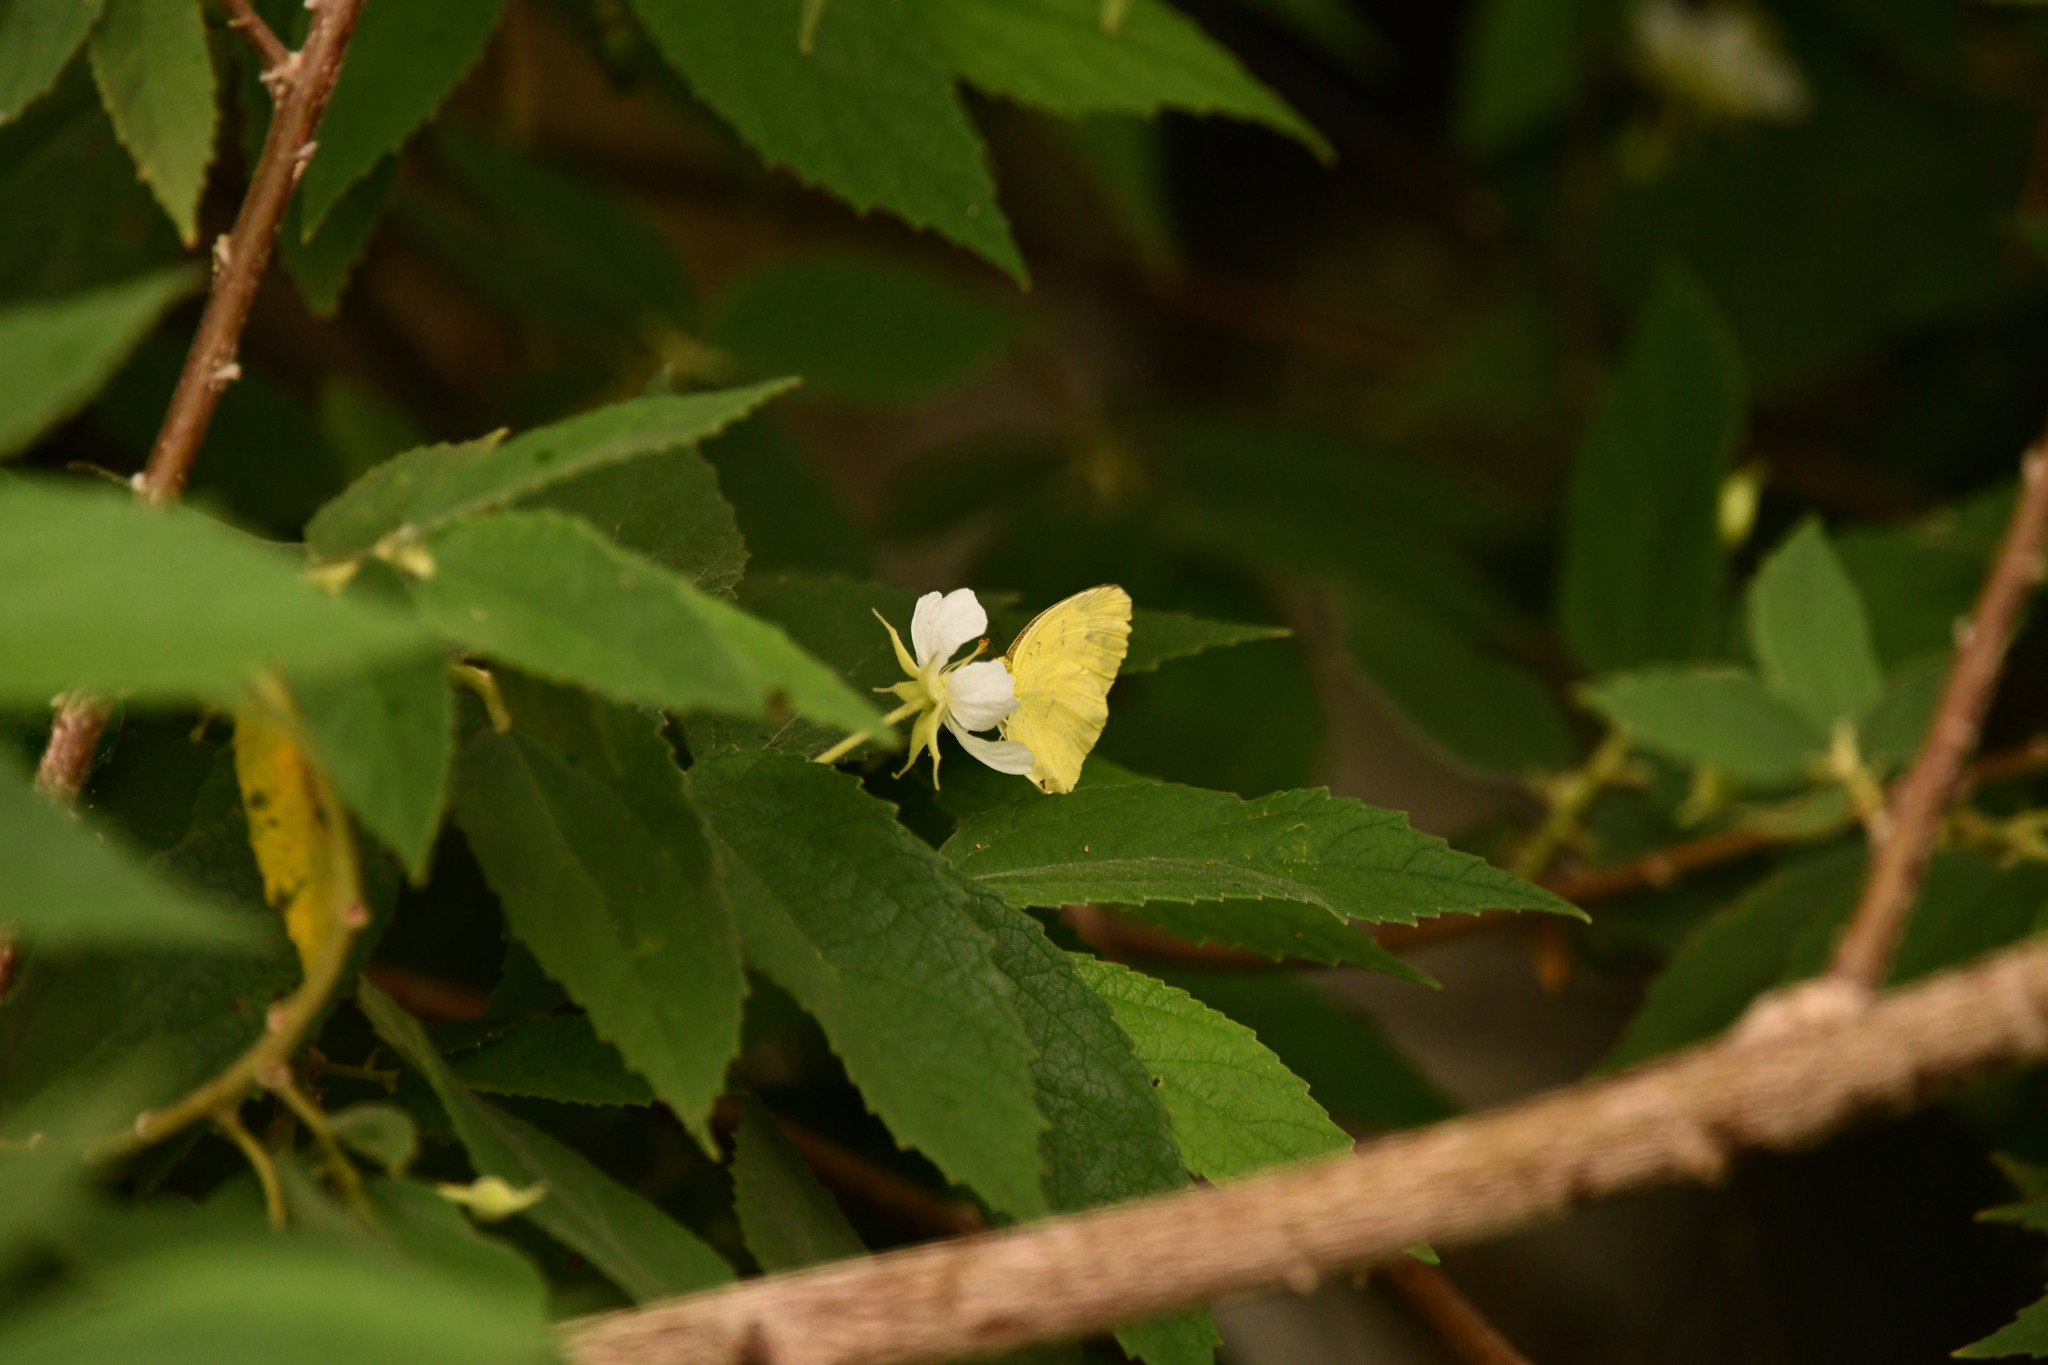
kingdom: Animalia
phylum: Arthropoda
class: Insecta
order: Lepidoptera
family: Pieridae
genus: Eurema
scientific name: Eurema hecabe
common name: Pale grass yellow
